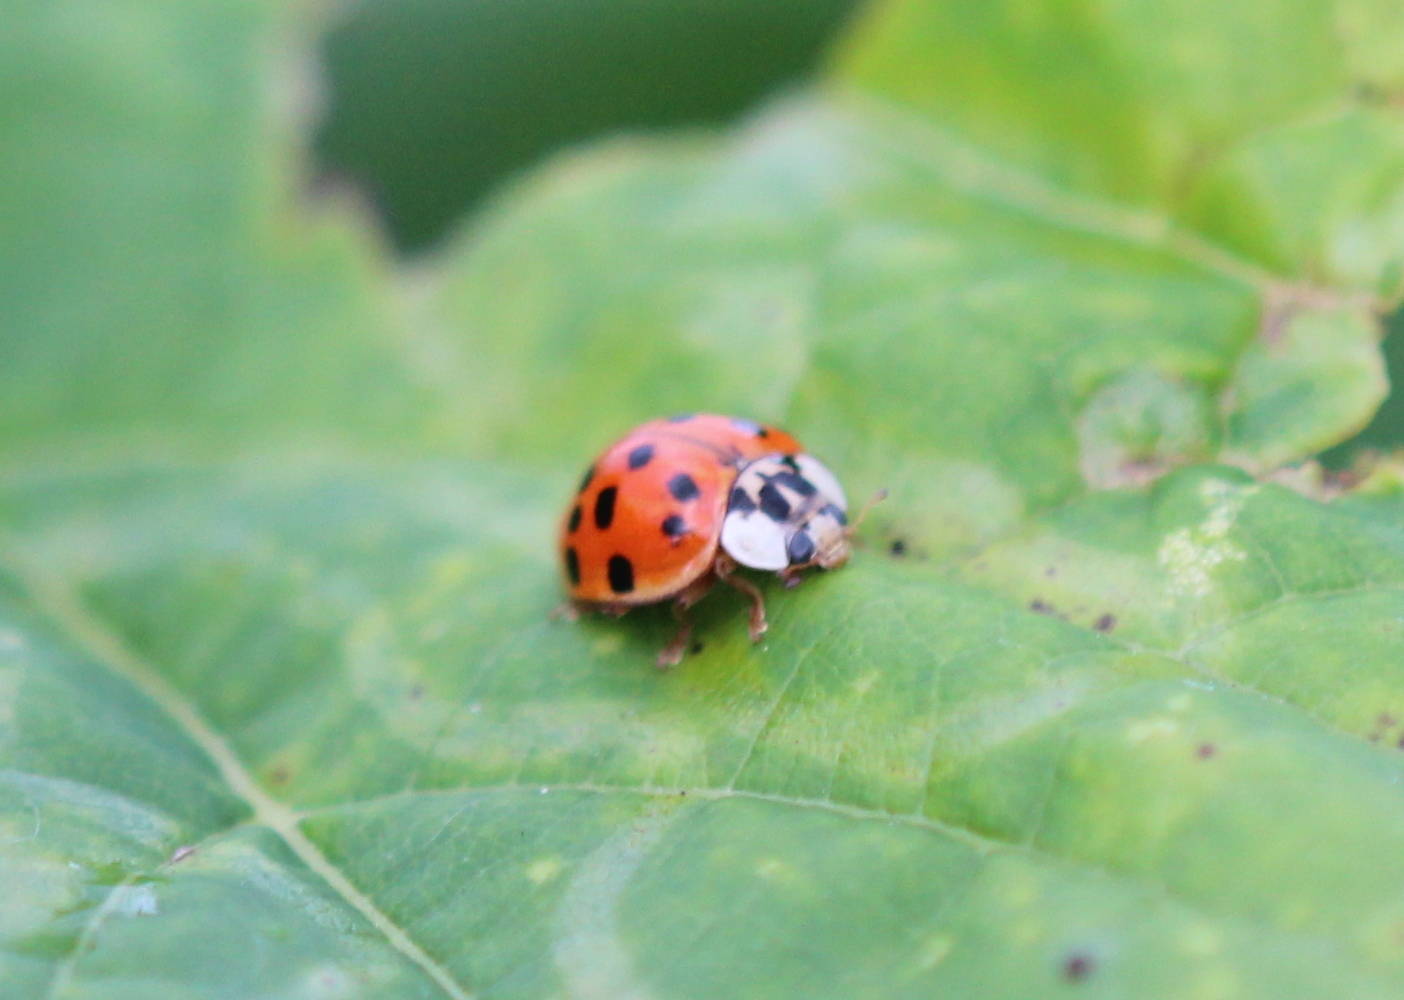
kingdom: Animalia
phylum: Arthropoda
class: Insecta
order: Coleoptera
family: Coccinellidae
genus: Harmonia
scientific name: Harmonia axyridis
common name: Harlequin ladybird
